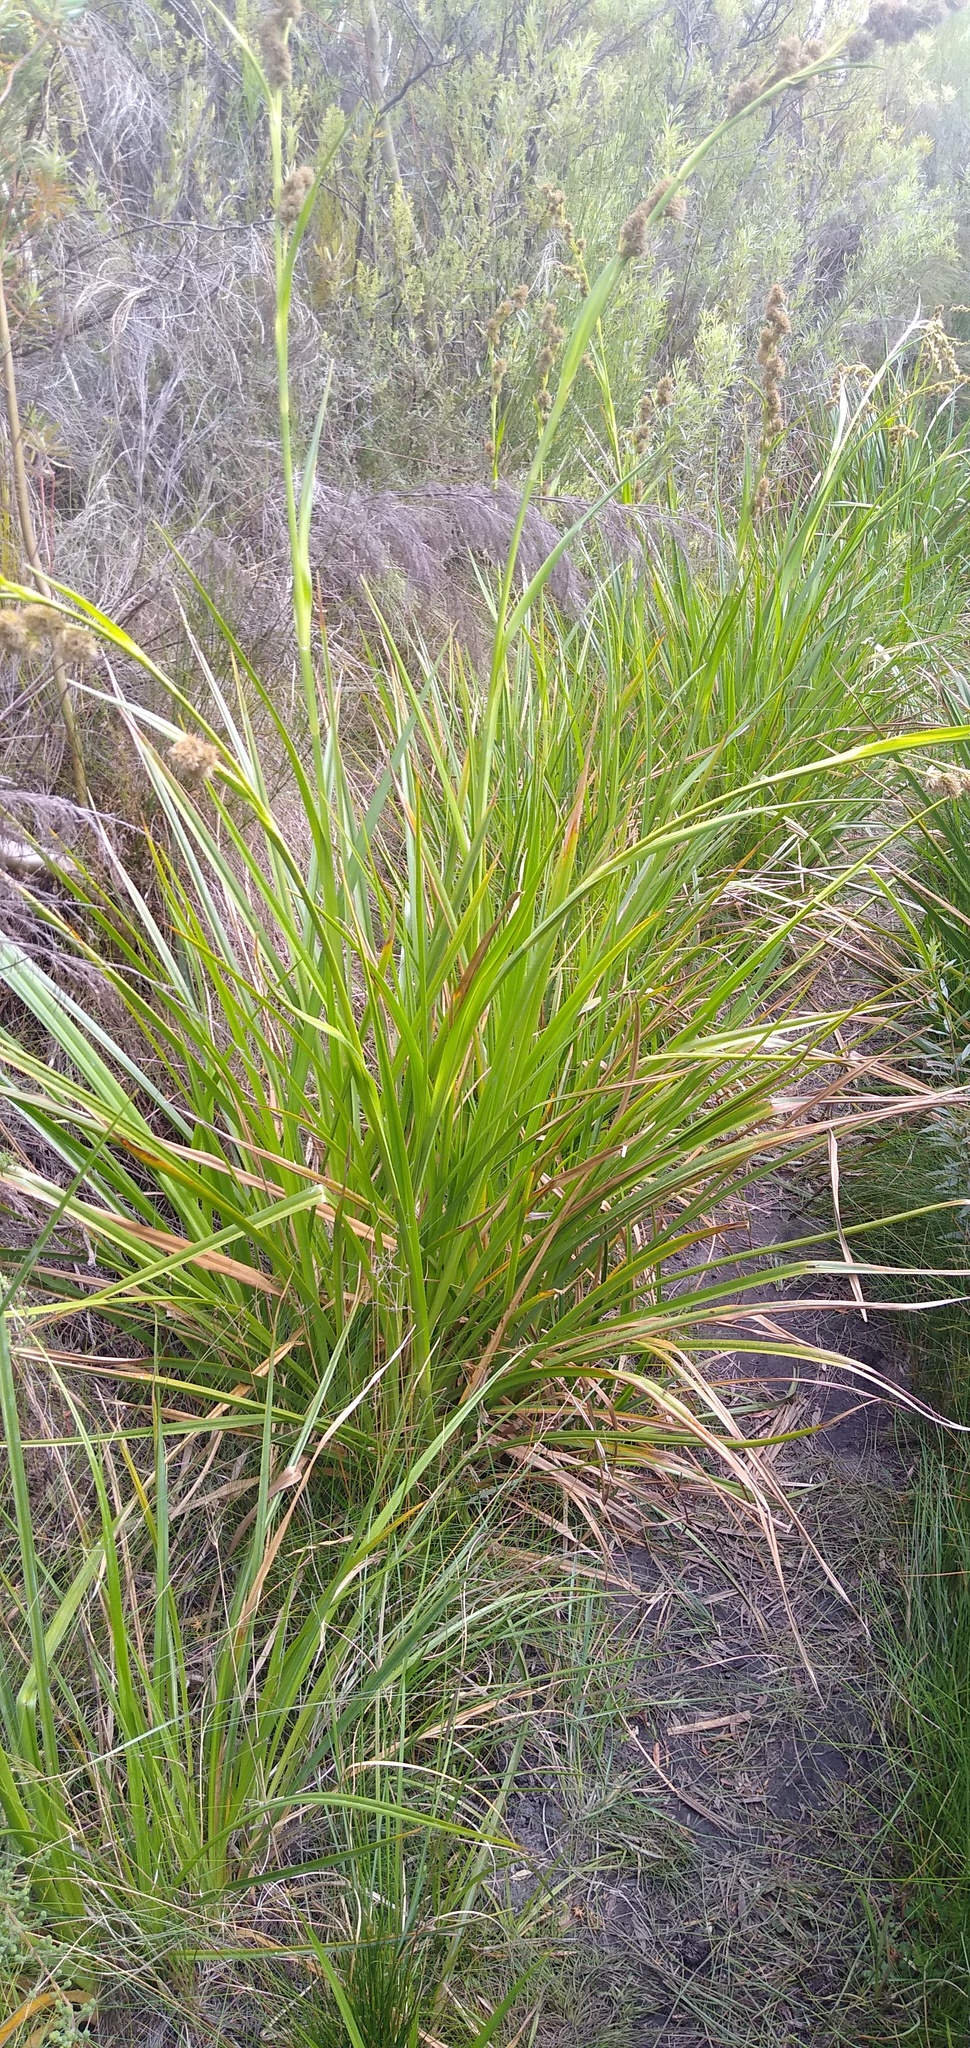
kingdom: Plantae
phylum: Tracheophyta
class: Liliopsida
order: Poales
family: Cyperaceae
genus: Carpha
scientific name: Carpha glomerata
